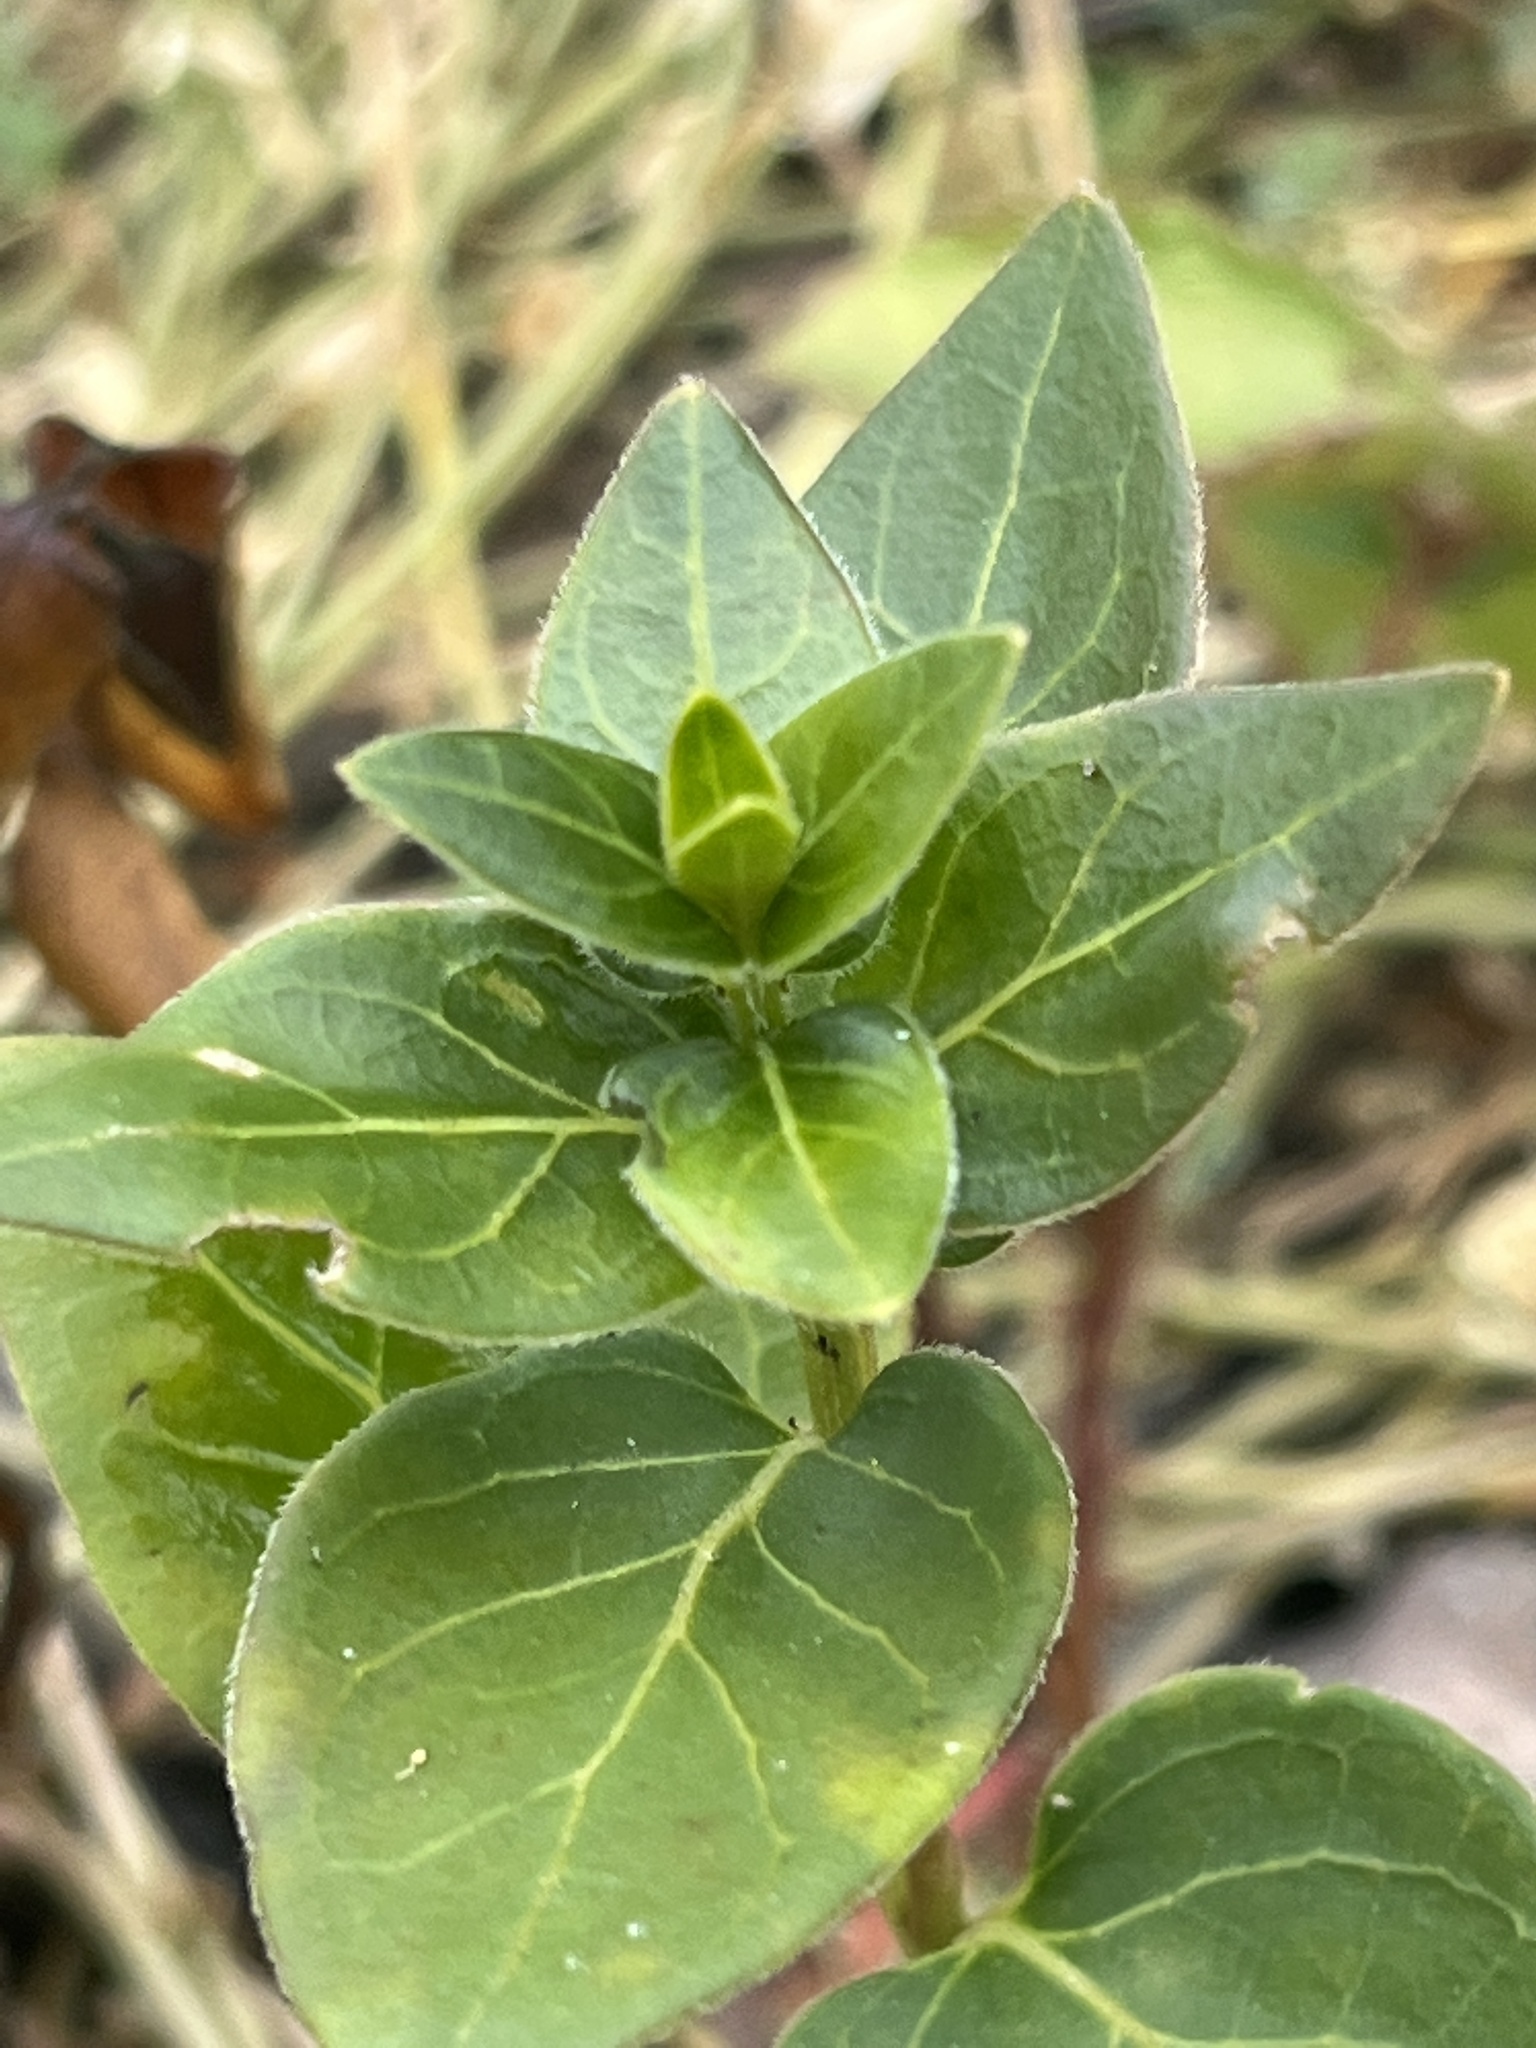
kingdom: Plantae
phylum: Tracheophyta
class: Magnoliopsida
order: Gentianales
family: Apocynaceae
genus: Vinca
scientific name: Vinca major
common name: Greater periwinkle
